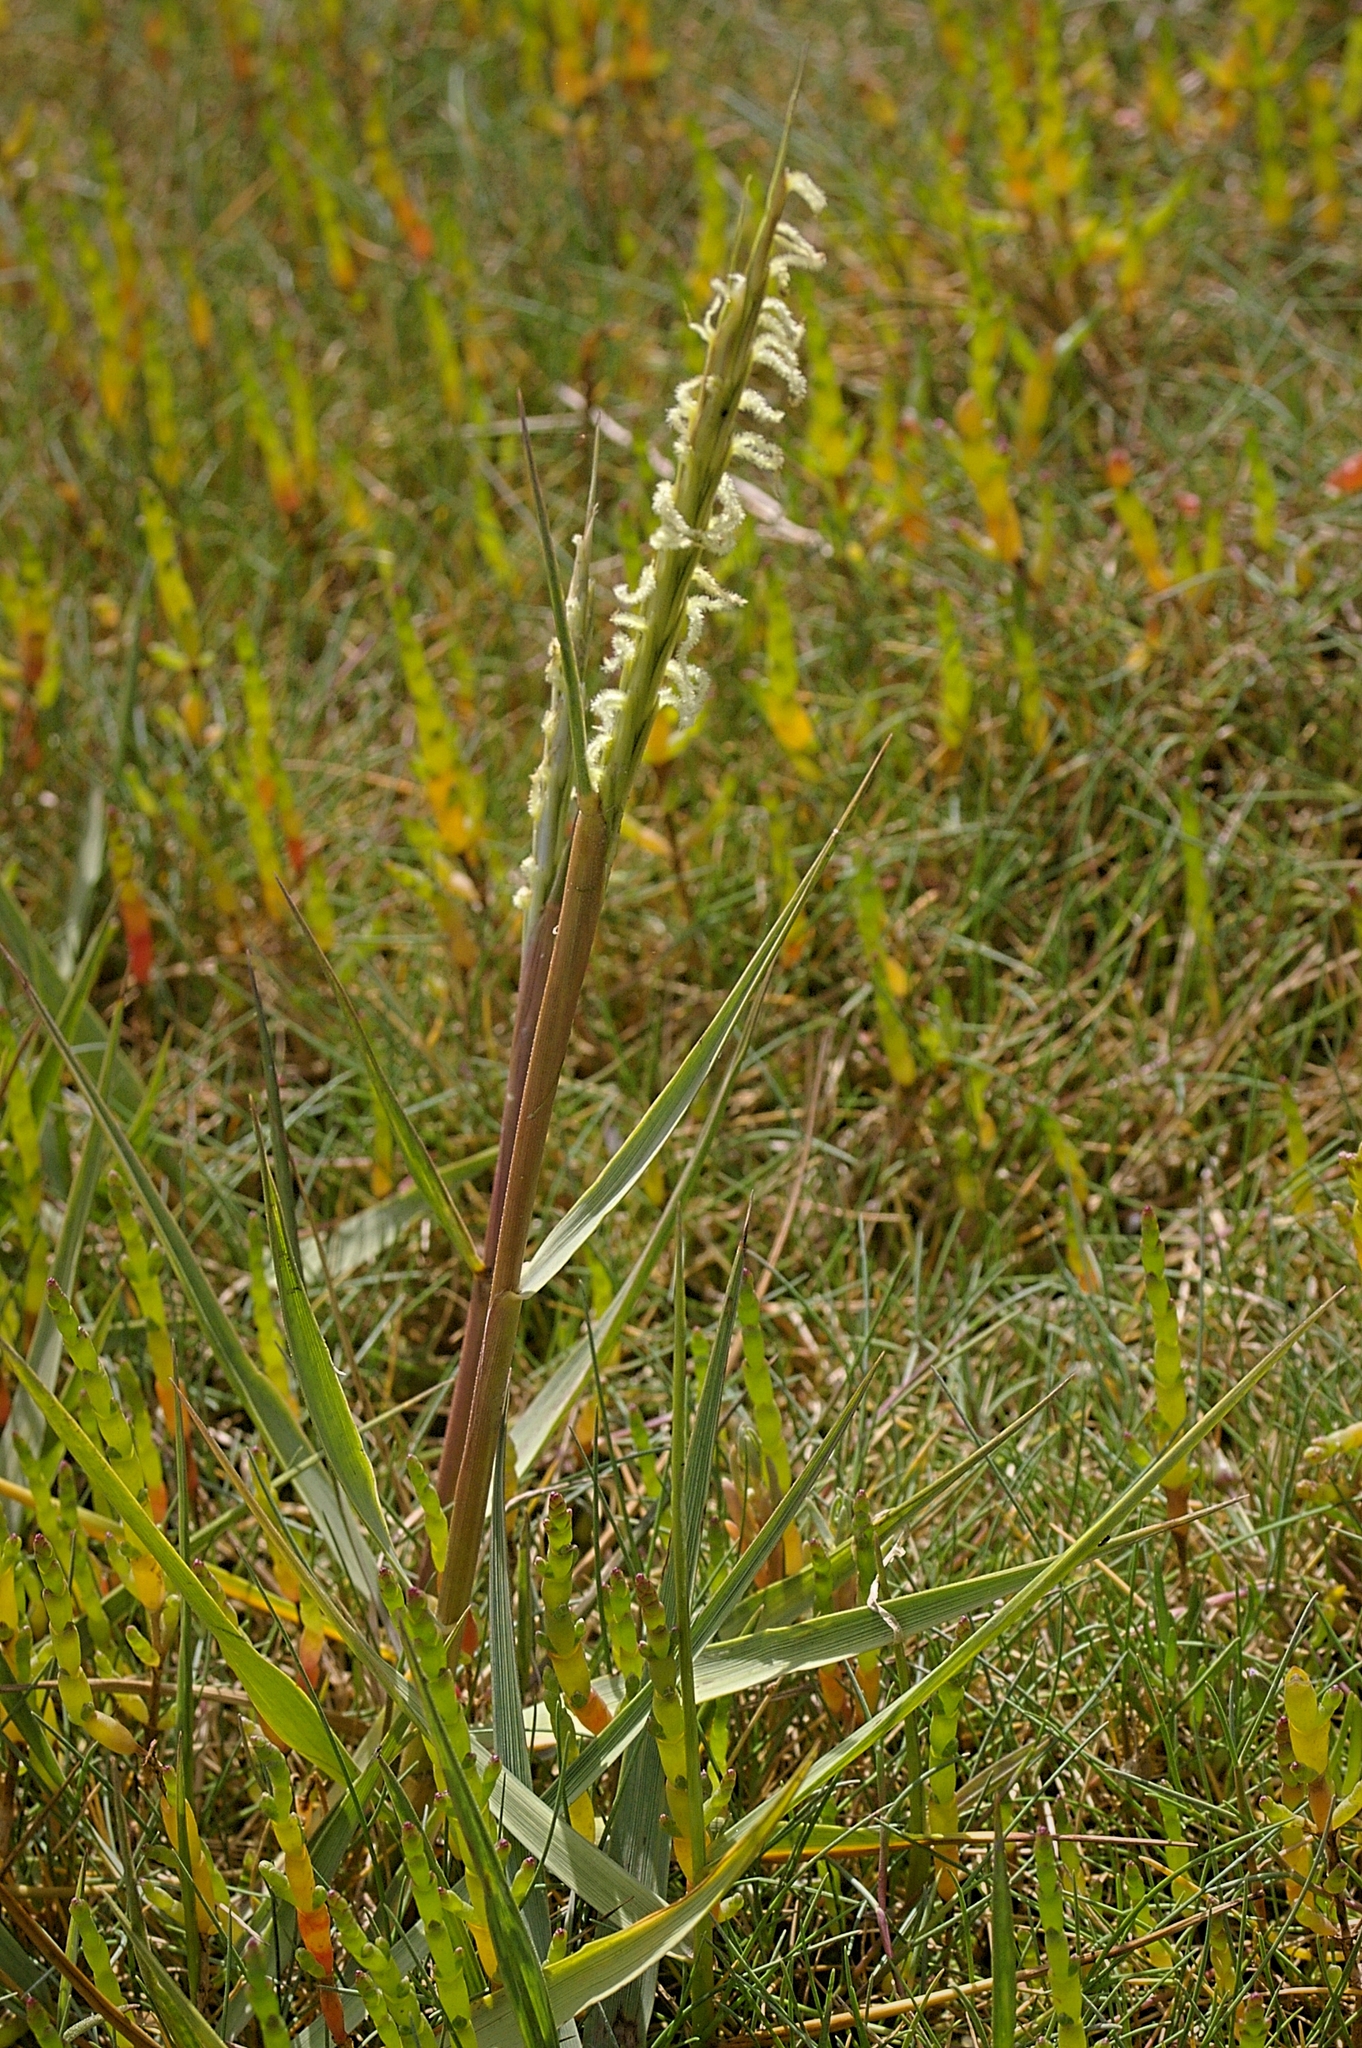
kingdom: Plantae
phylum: Tracheophyta
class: Liliopsida
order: Poales
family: Poaceae
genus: Sporobolus
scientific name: Sporobolus anglicus
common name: English cordgrass
